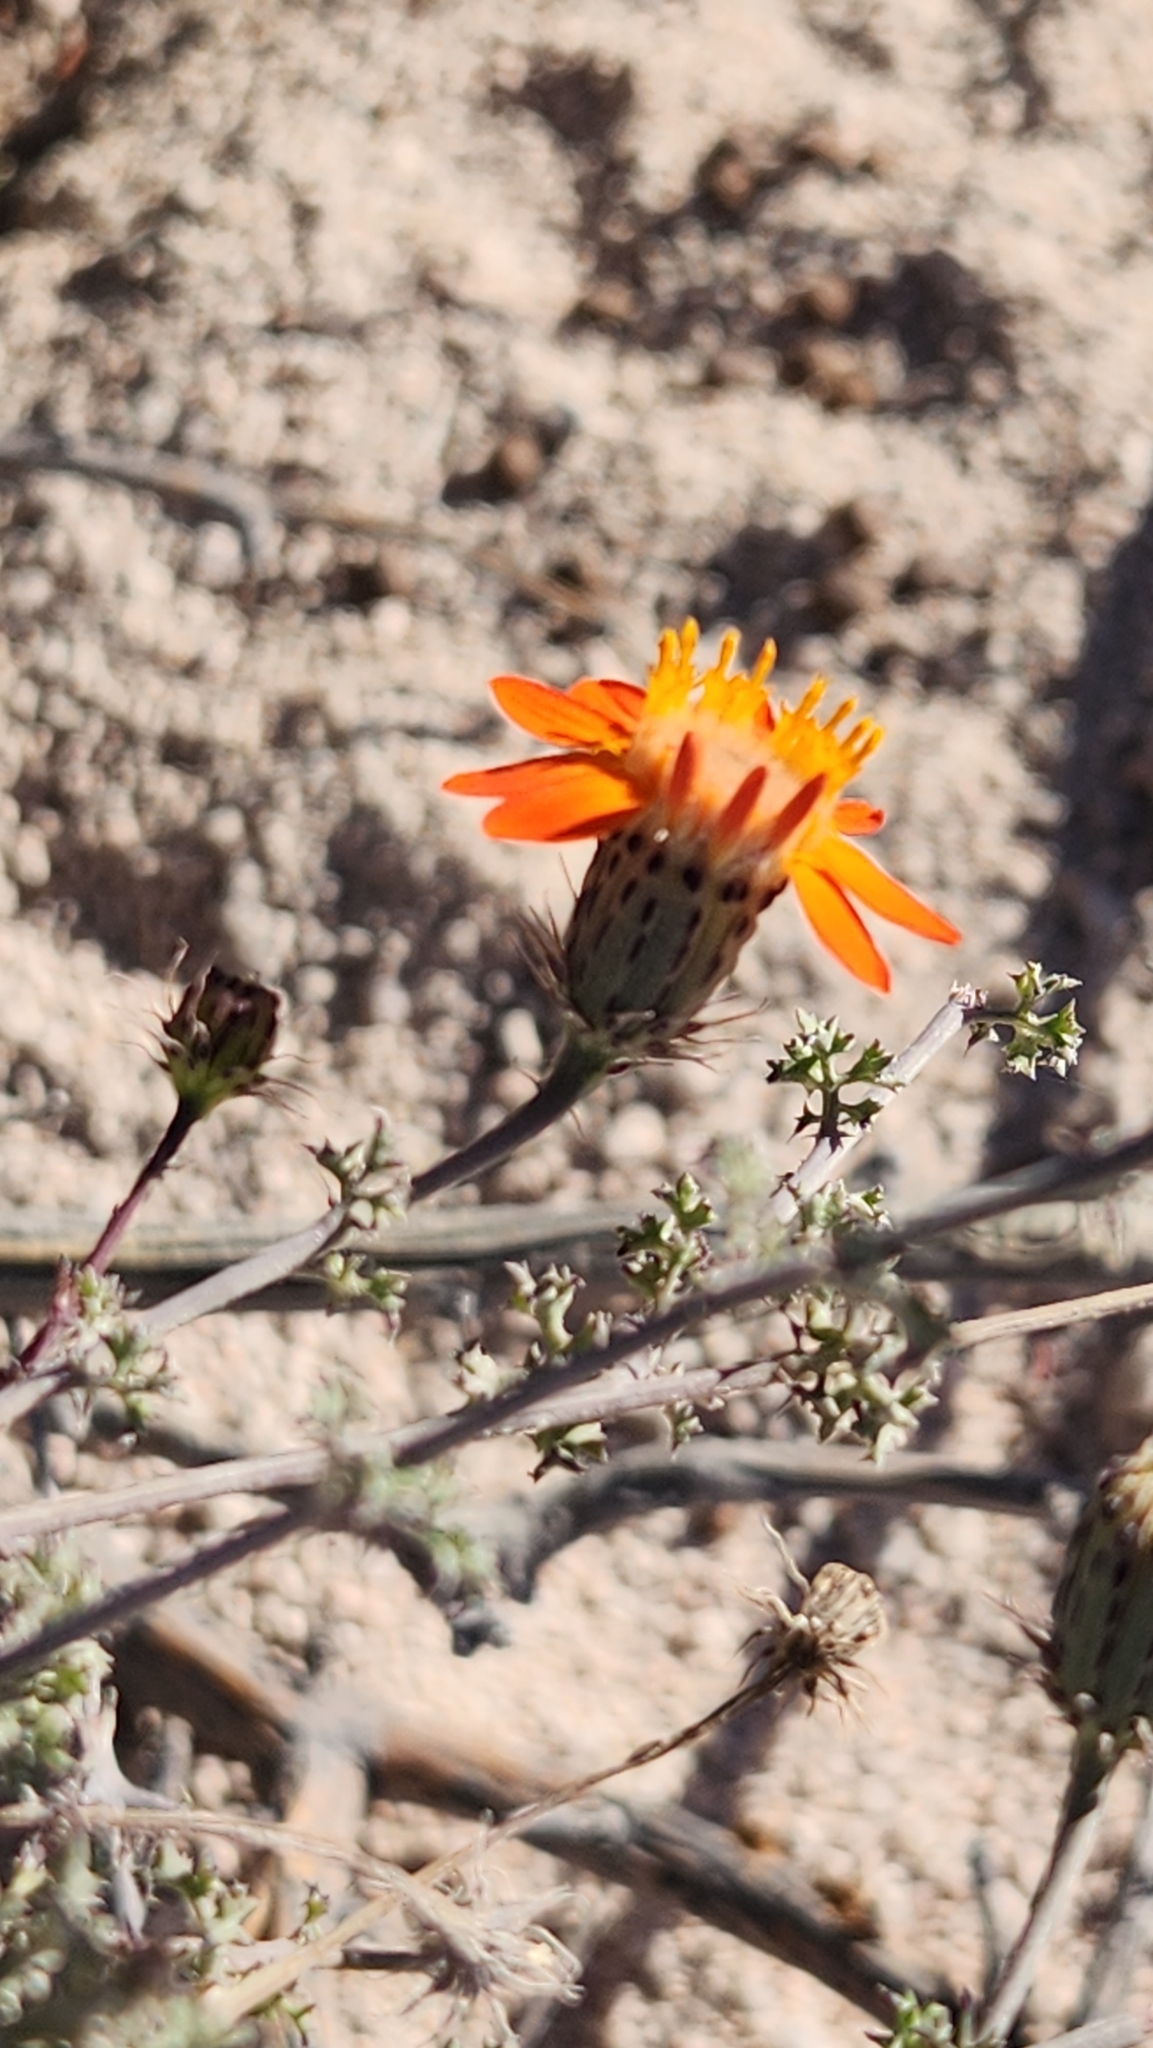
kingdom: Plantae
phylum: Tracheophyta
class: Magnoliopsida
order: Asterales
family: Asteraceae
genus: Adenophyllum
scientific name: Adenophyllum speciosum
